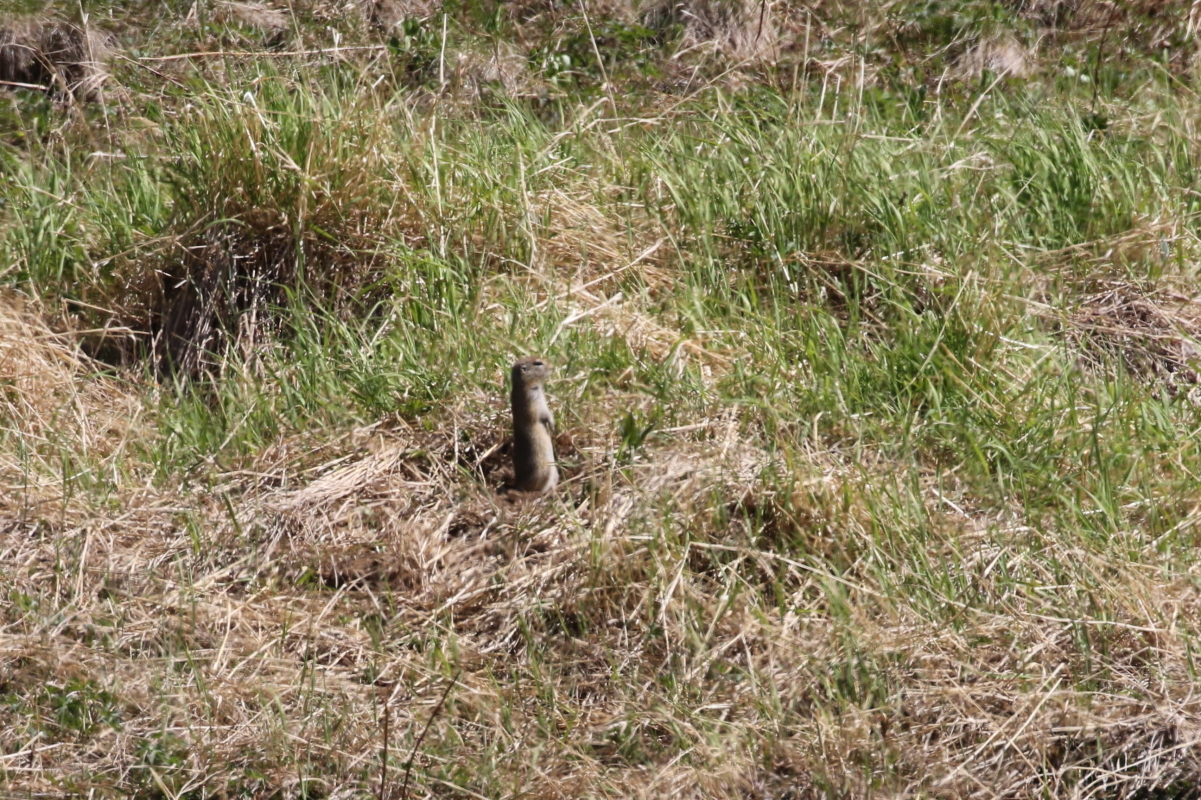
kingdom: Animalia
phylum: Chordata
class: Mammalia
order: Rodentia
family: Sciuridae
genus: Urocitellus
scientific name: Urocitellus parryii
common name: Arctic ground squirrel
